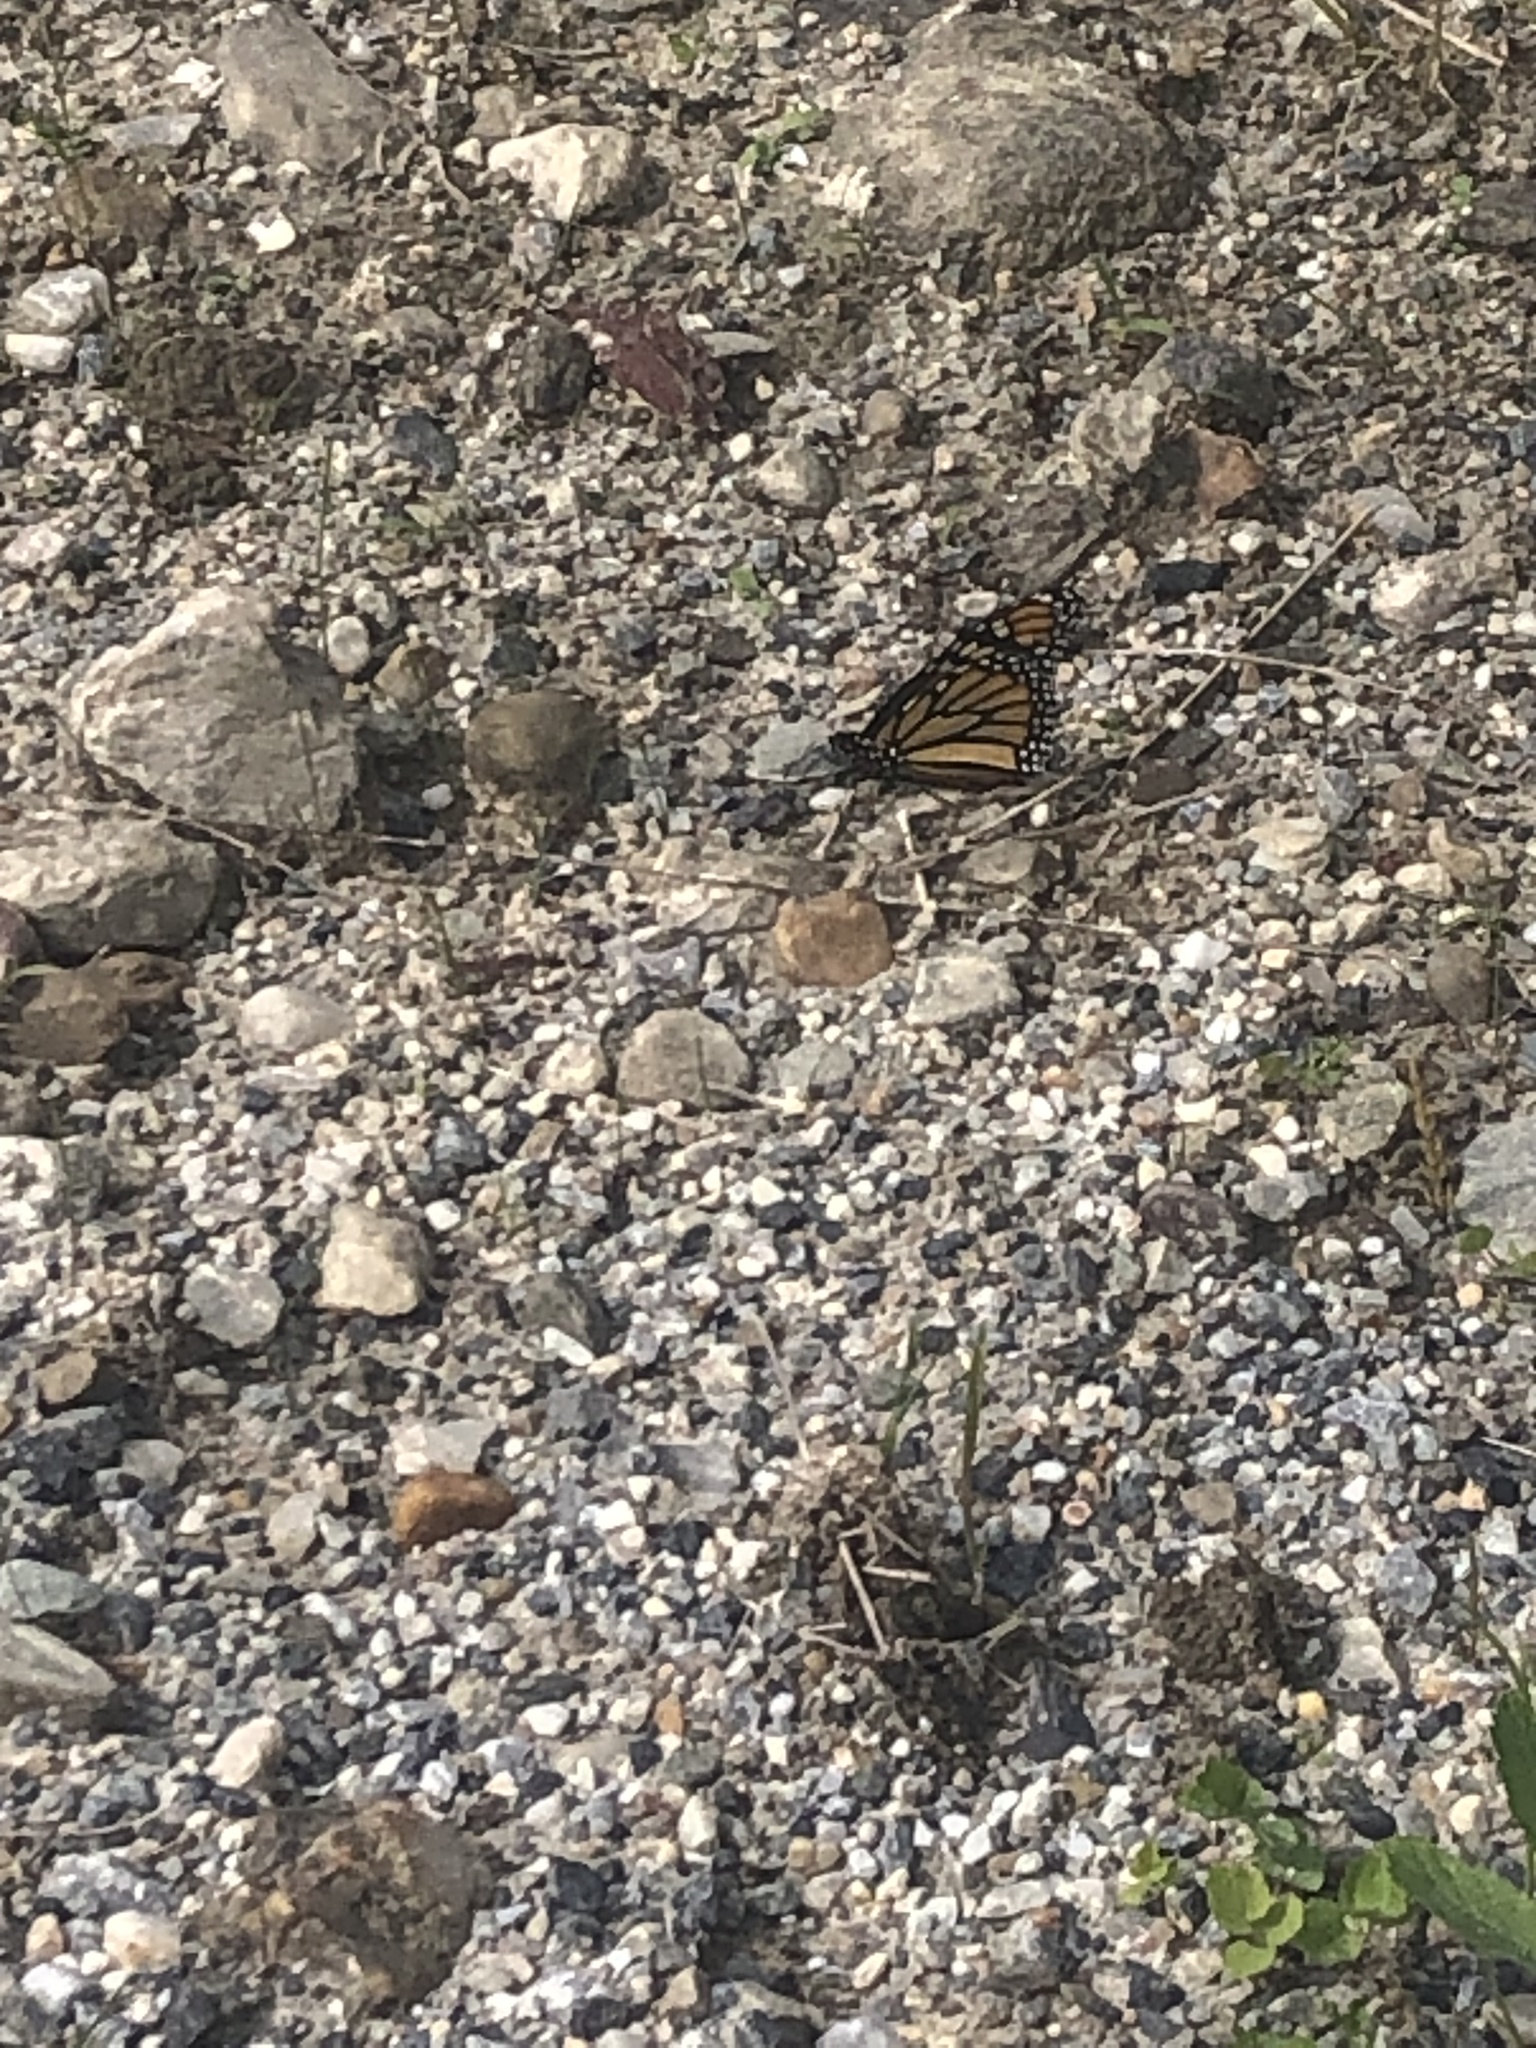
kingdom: Animalia
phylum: Arthropoda
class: Insecta
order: Lepidoptera
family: Nymphalidae
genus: Danaus
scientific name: Danaus plexippus
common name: Monarch
